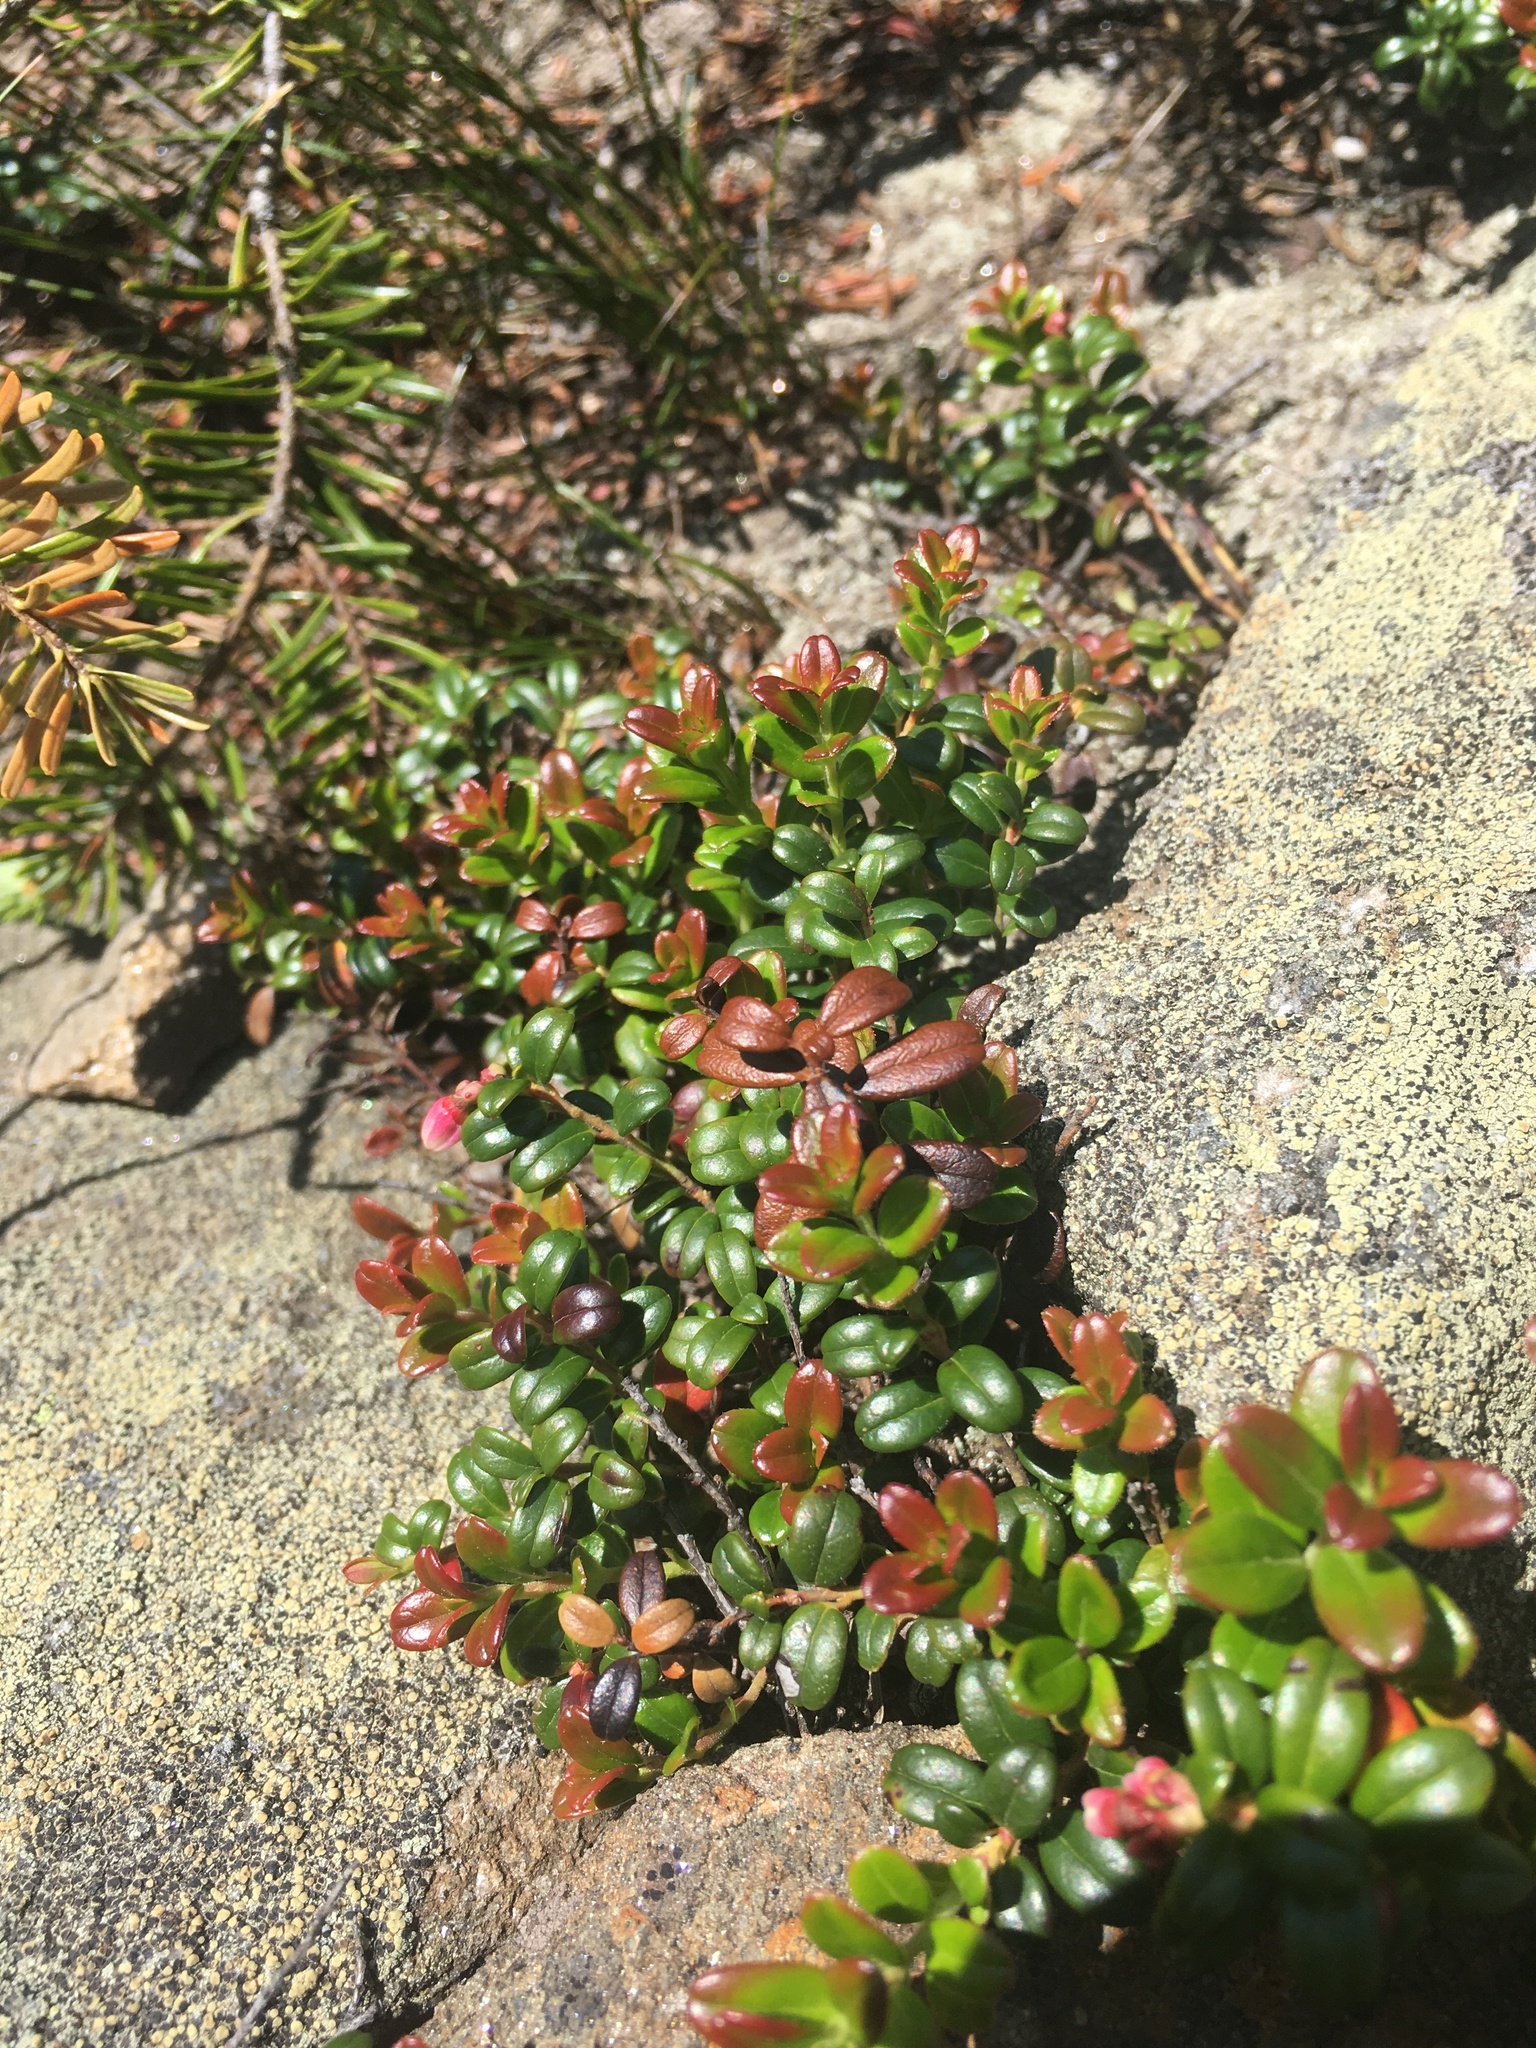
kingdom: Plantae
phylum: Tracheophyta
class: Magnoliopsida
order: Ericales
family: Ericaceae
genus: Vaccinium
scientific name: Vaccinium vitis-idaea
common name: Cowberry
